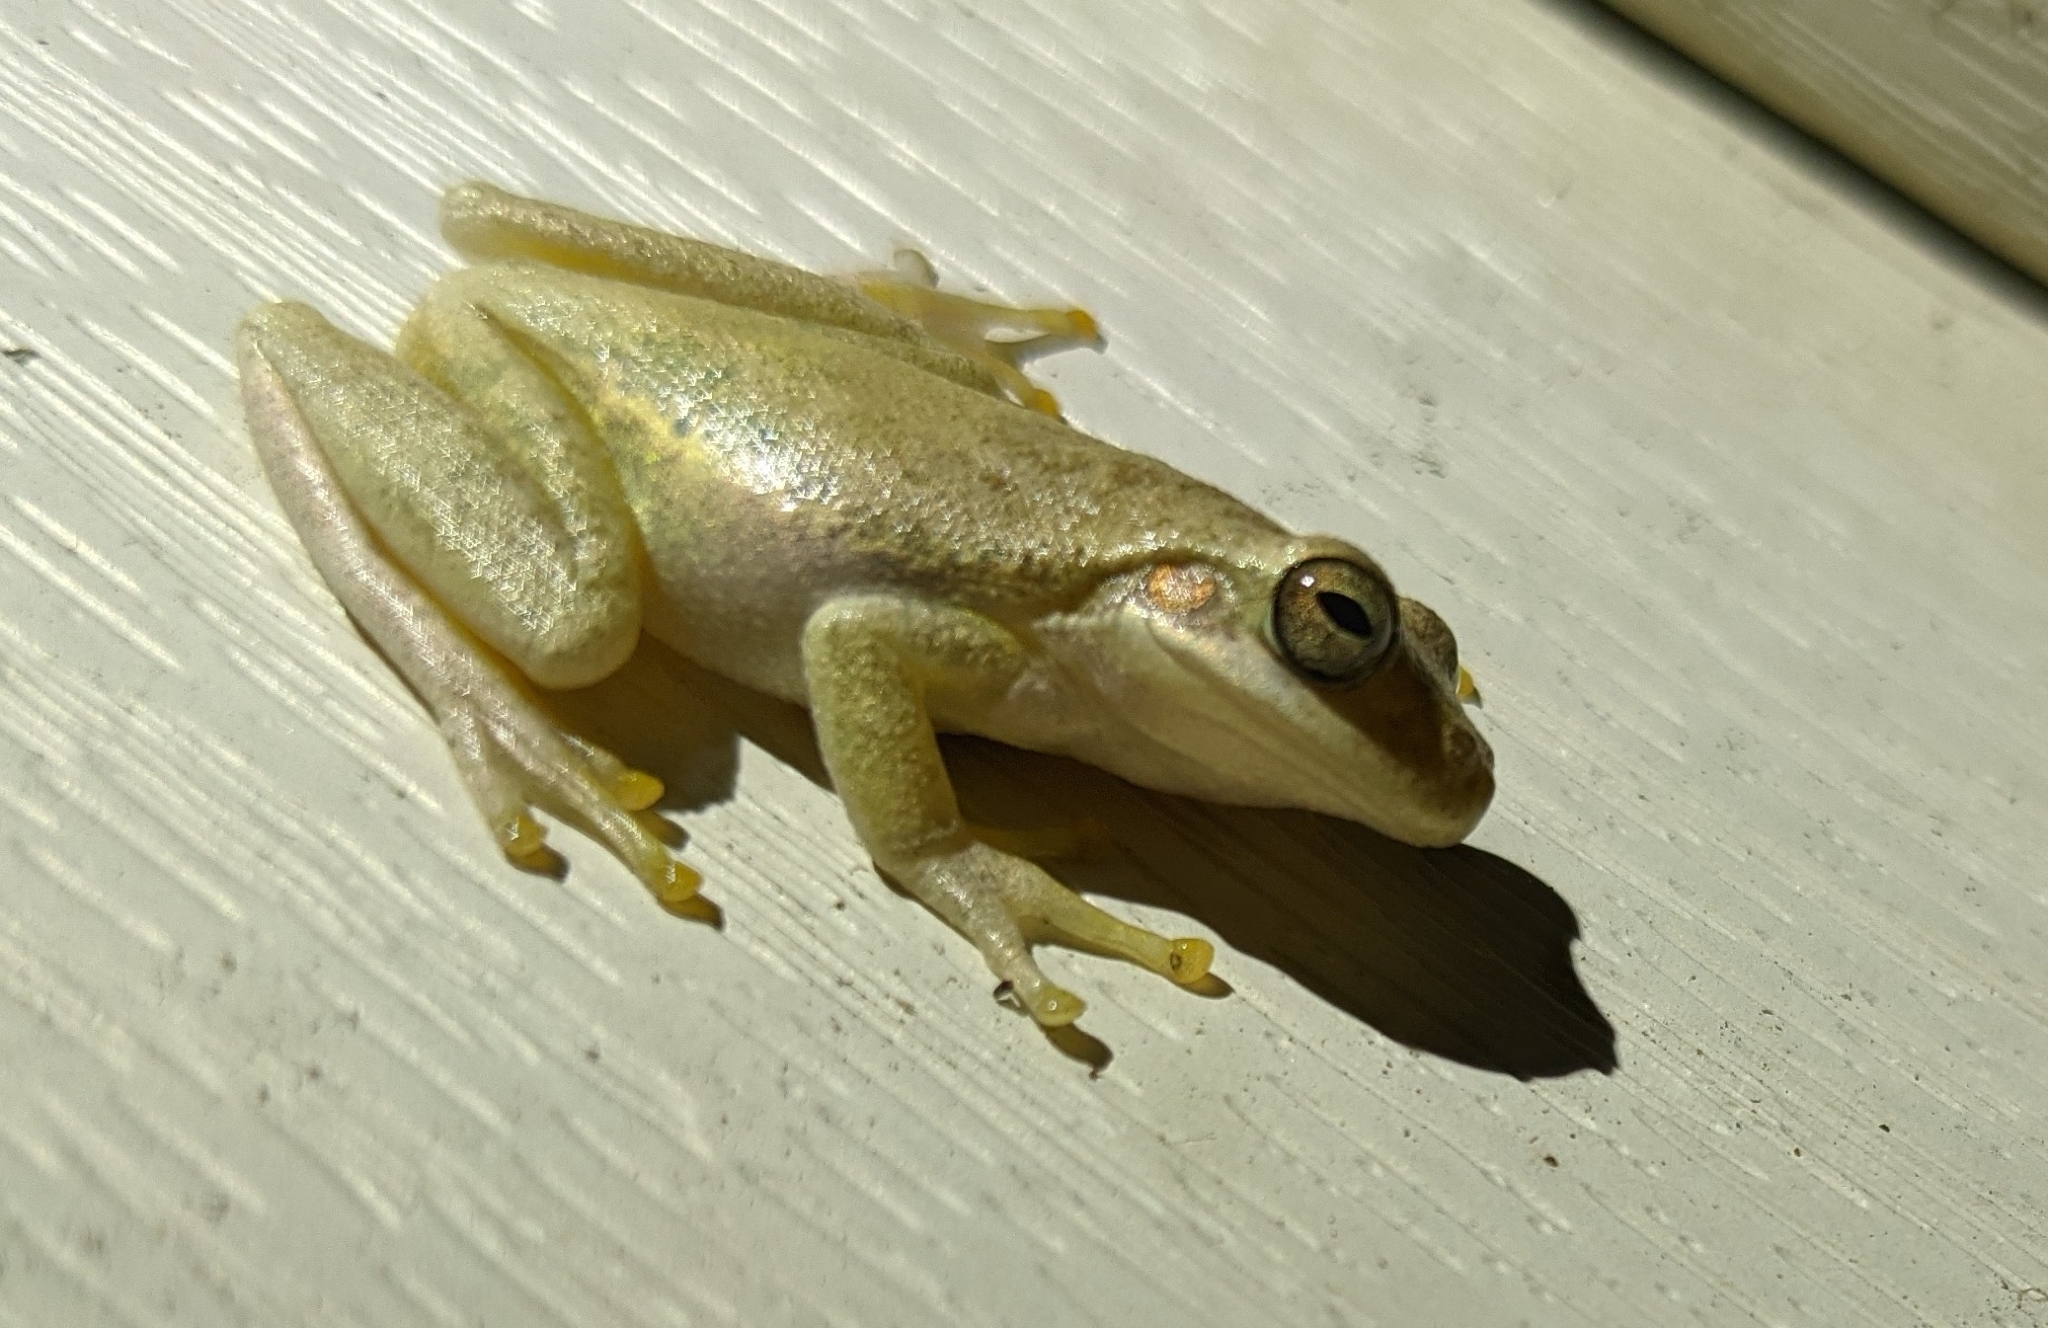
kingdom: Animalia
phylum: Chordata
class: Amphibia
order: Anura
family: Hylidae
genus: Dryophytes
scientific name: Dryophytes squirellus
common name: Squirrel treefrog
